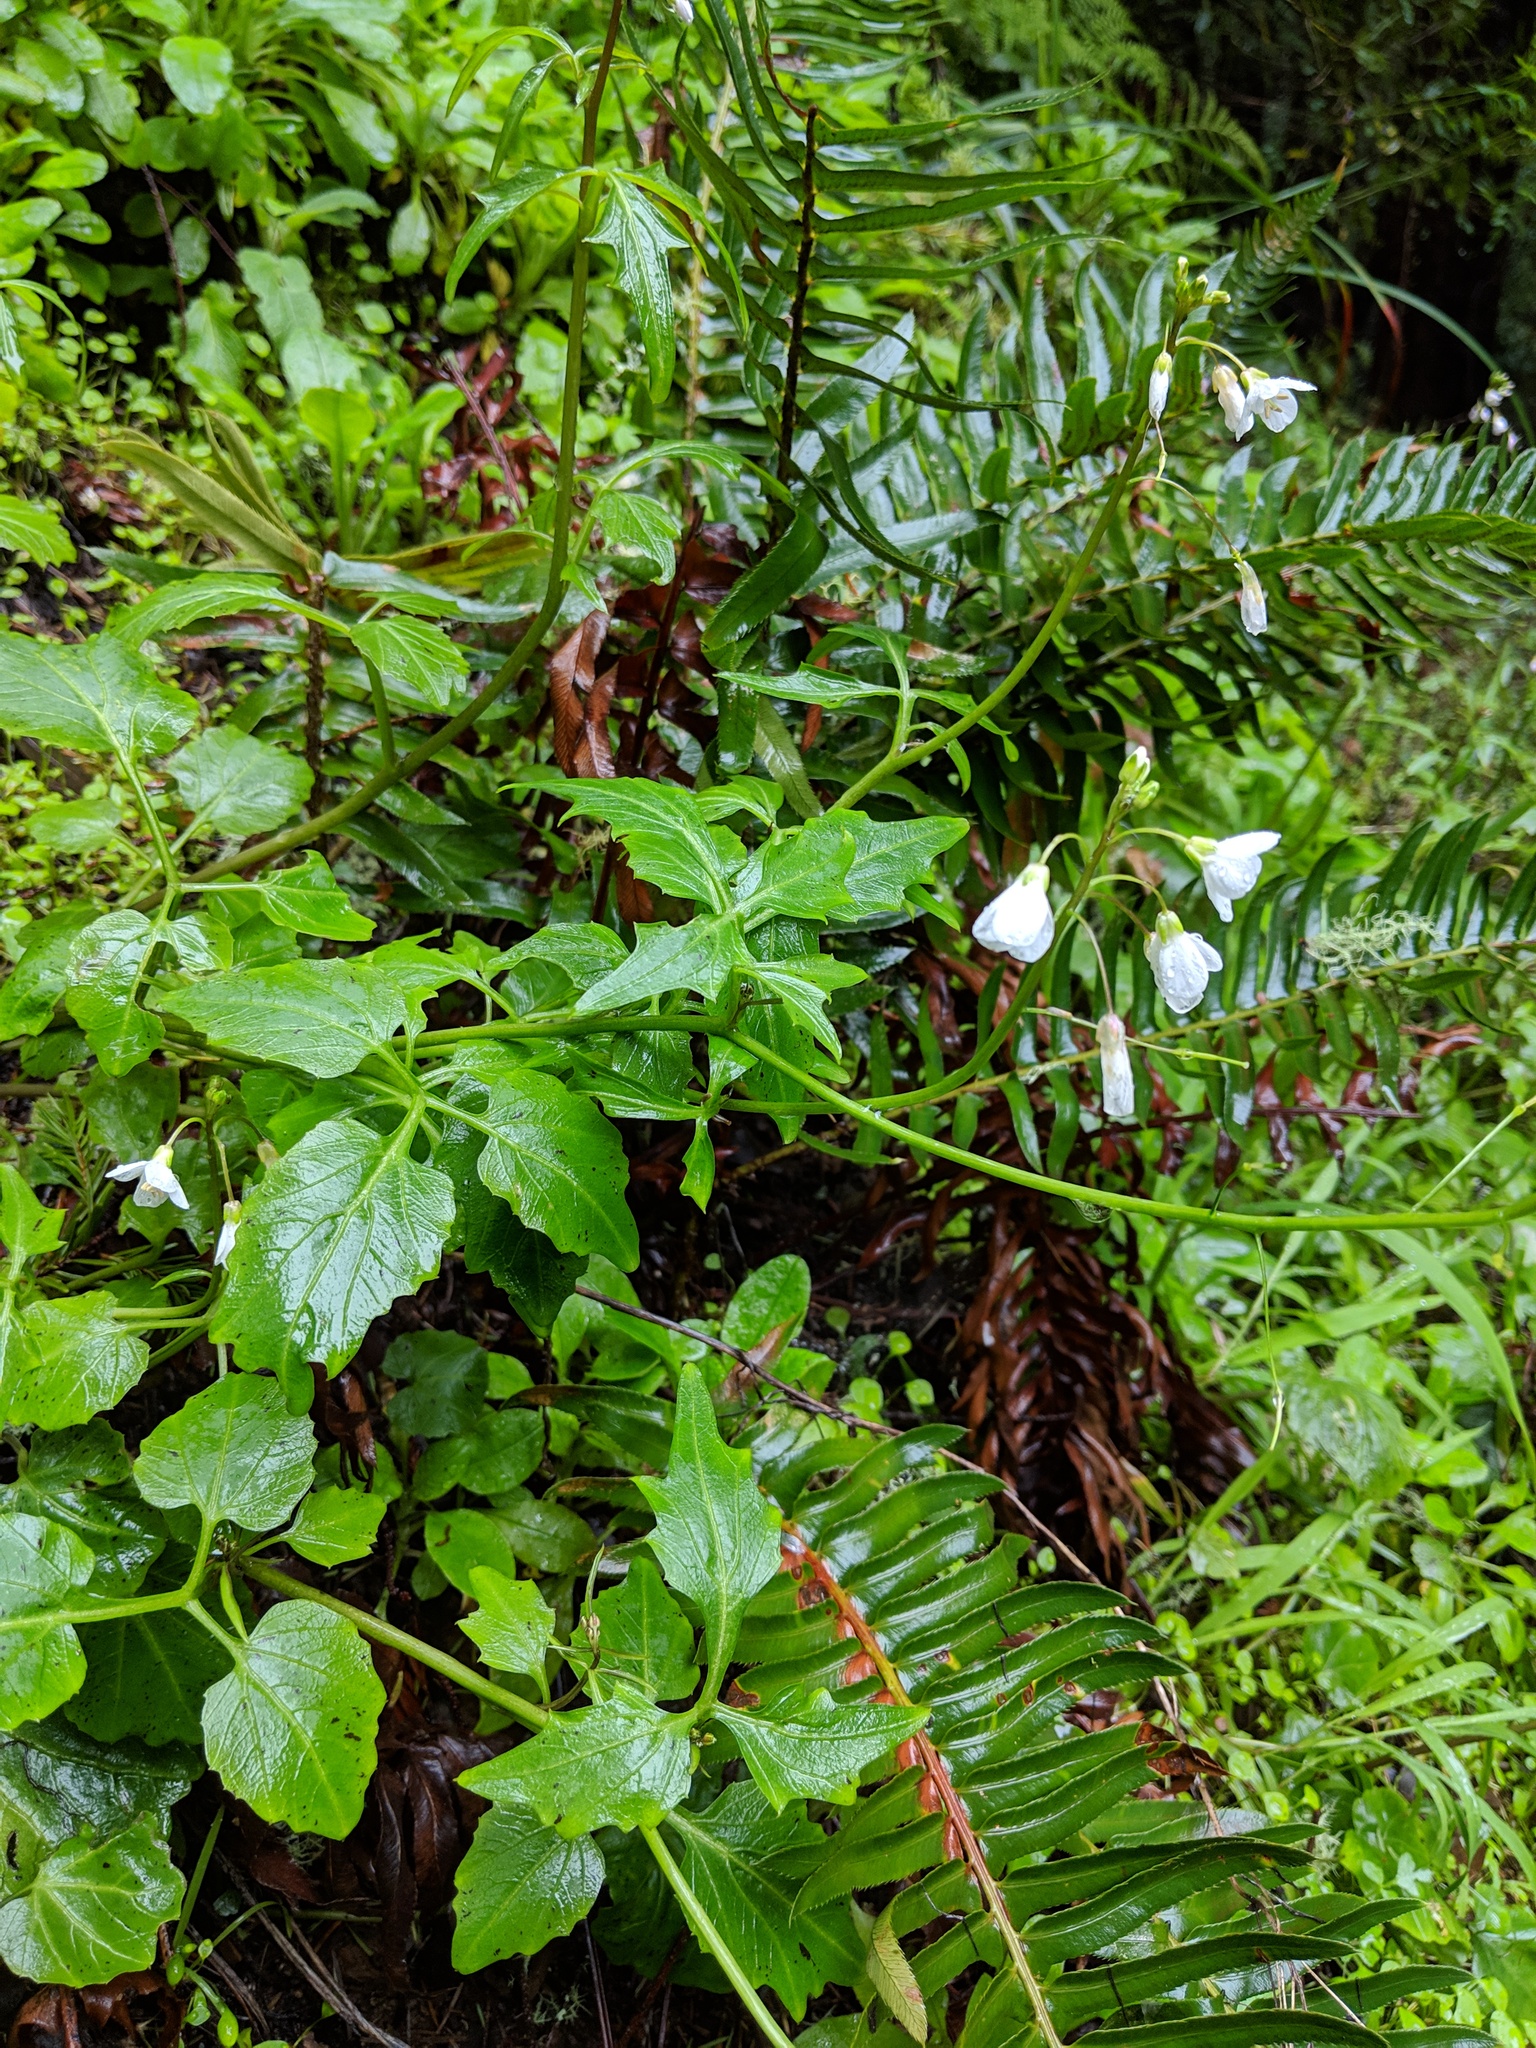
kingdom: Plantae
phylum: Tracheophyta
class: Magnoliopsida
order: Brassicales
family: Brassicaceae
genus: Cardamine
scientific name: Cardamine californica
